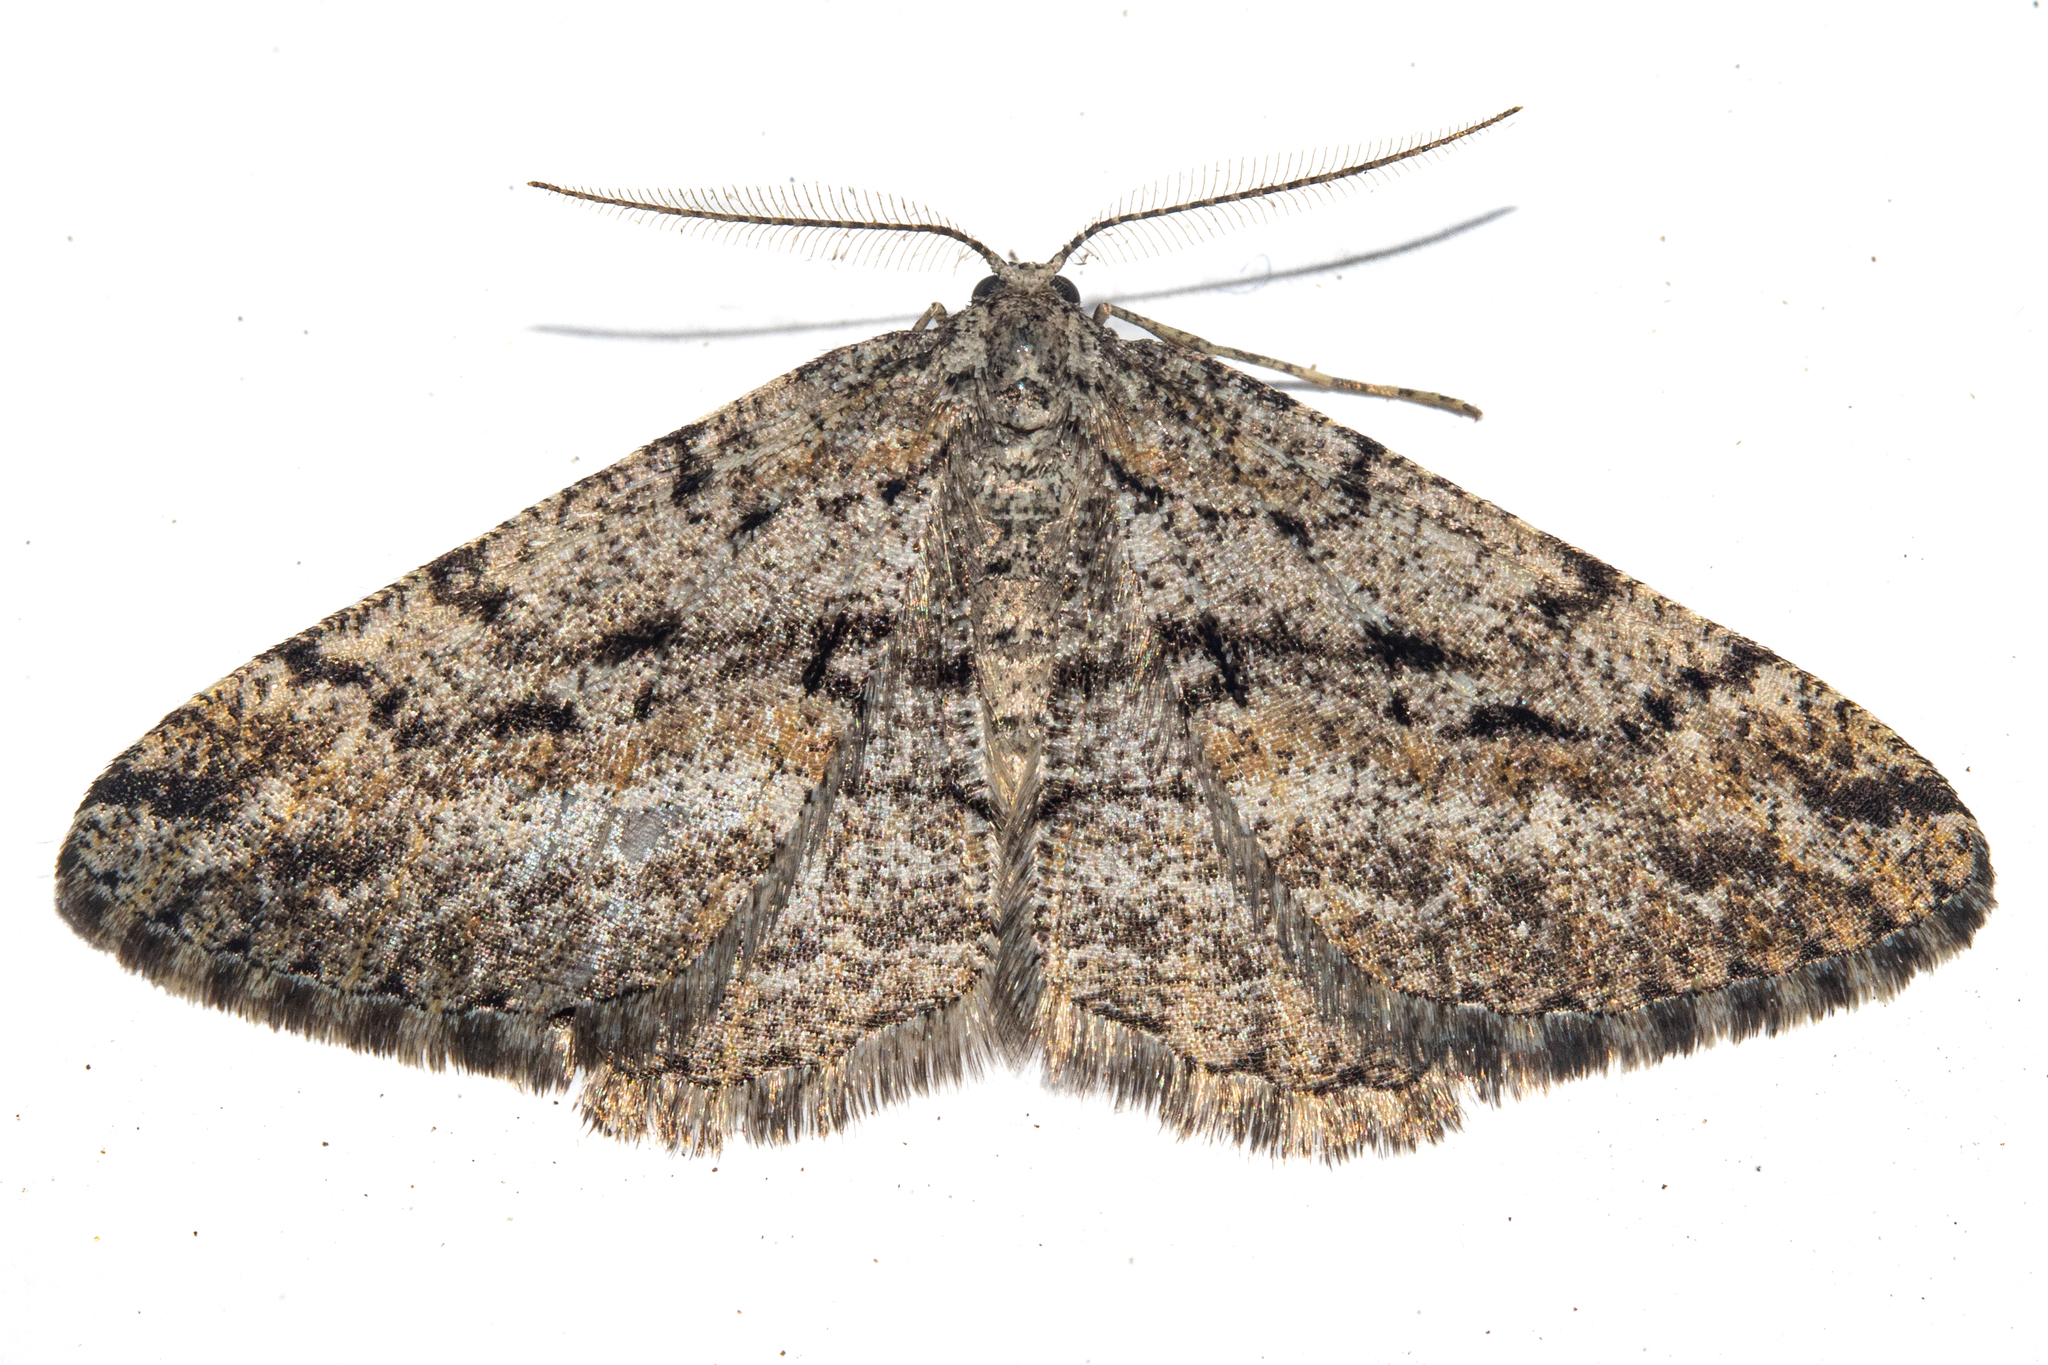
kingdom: Animalia
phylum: Arthropoda
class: Insecta
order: Lepidoptera
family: Geometridae
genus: Zermizinga
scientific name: Zermizinga indocilisaria
